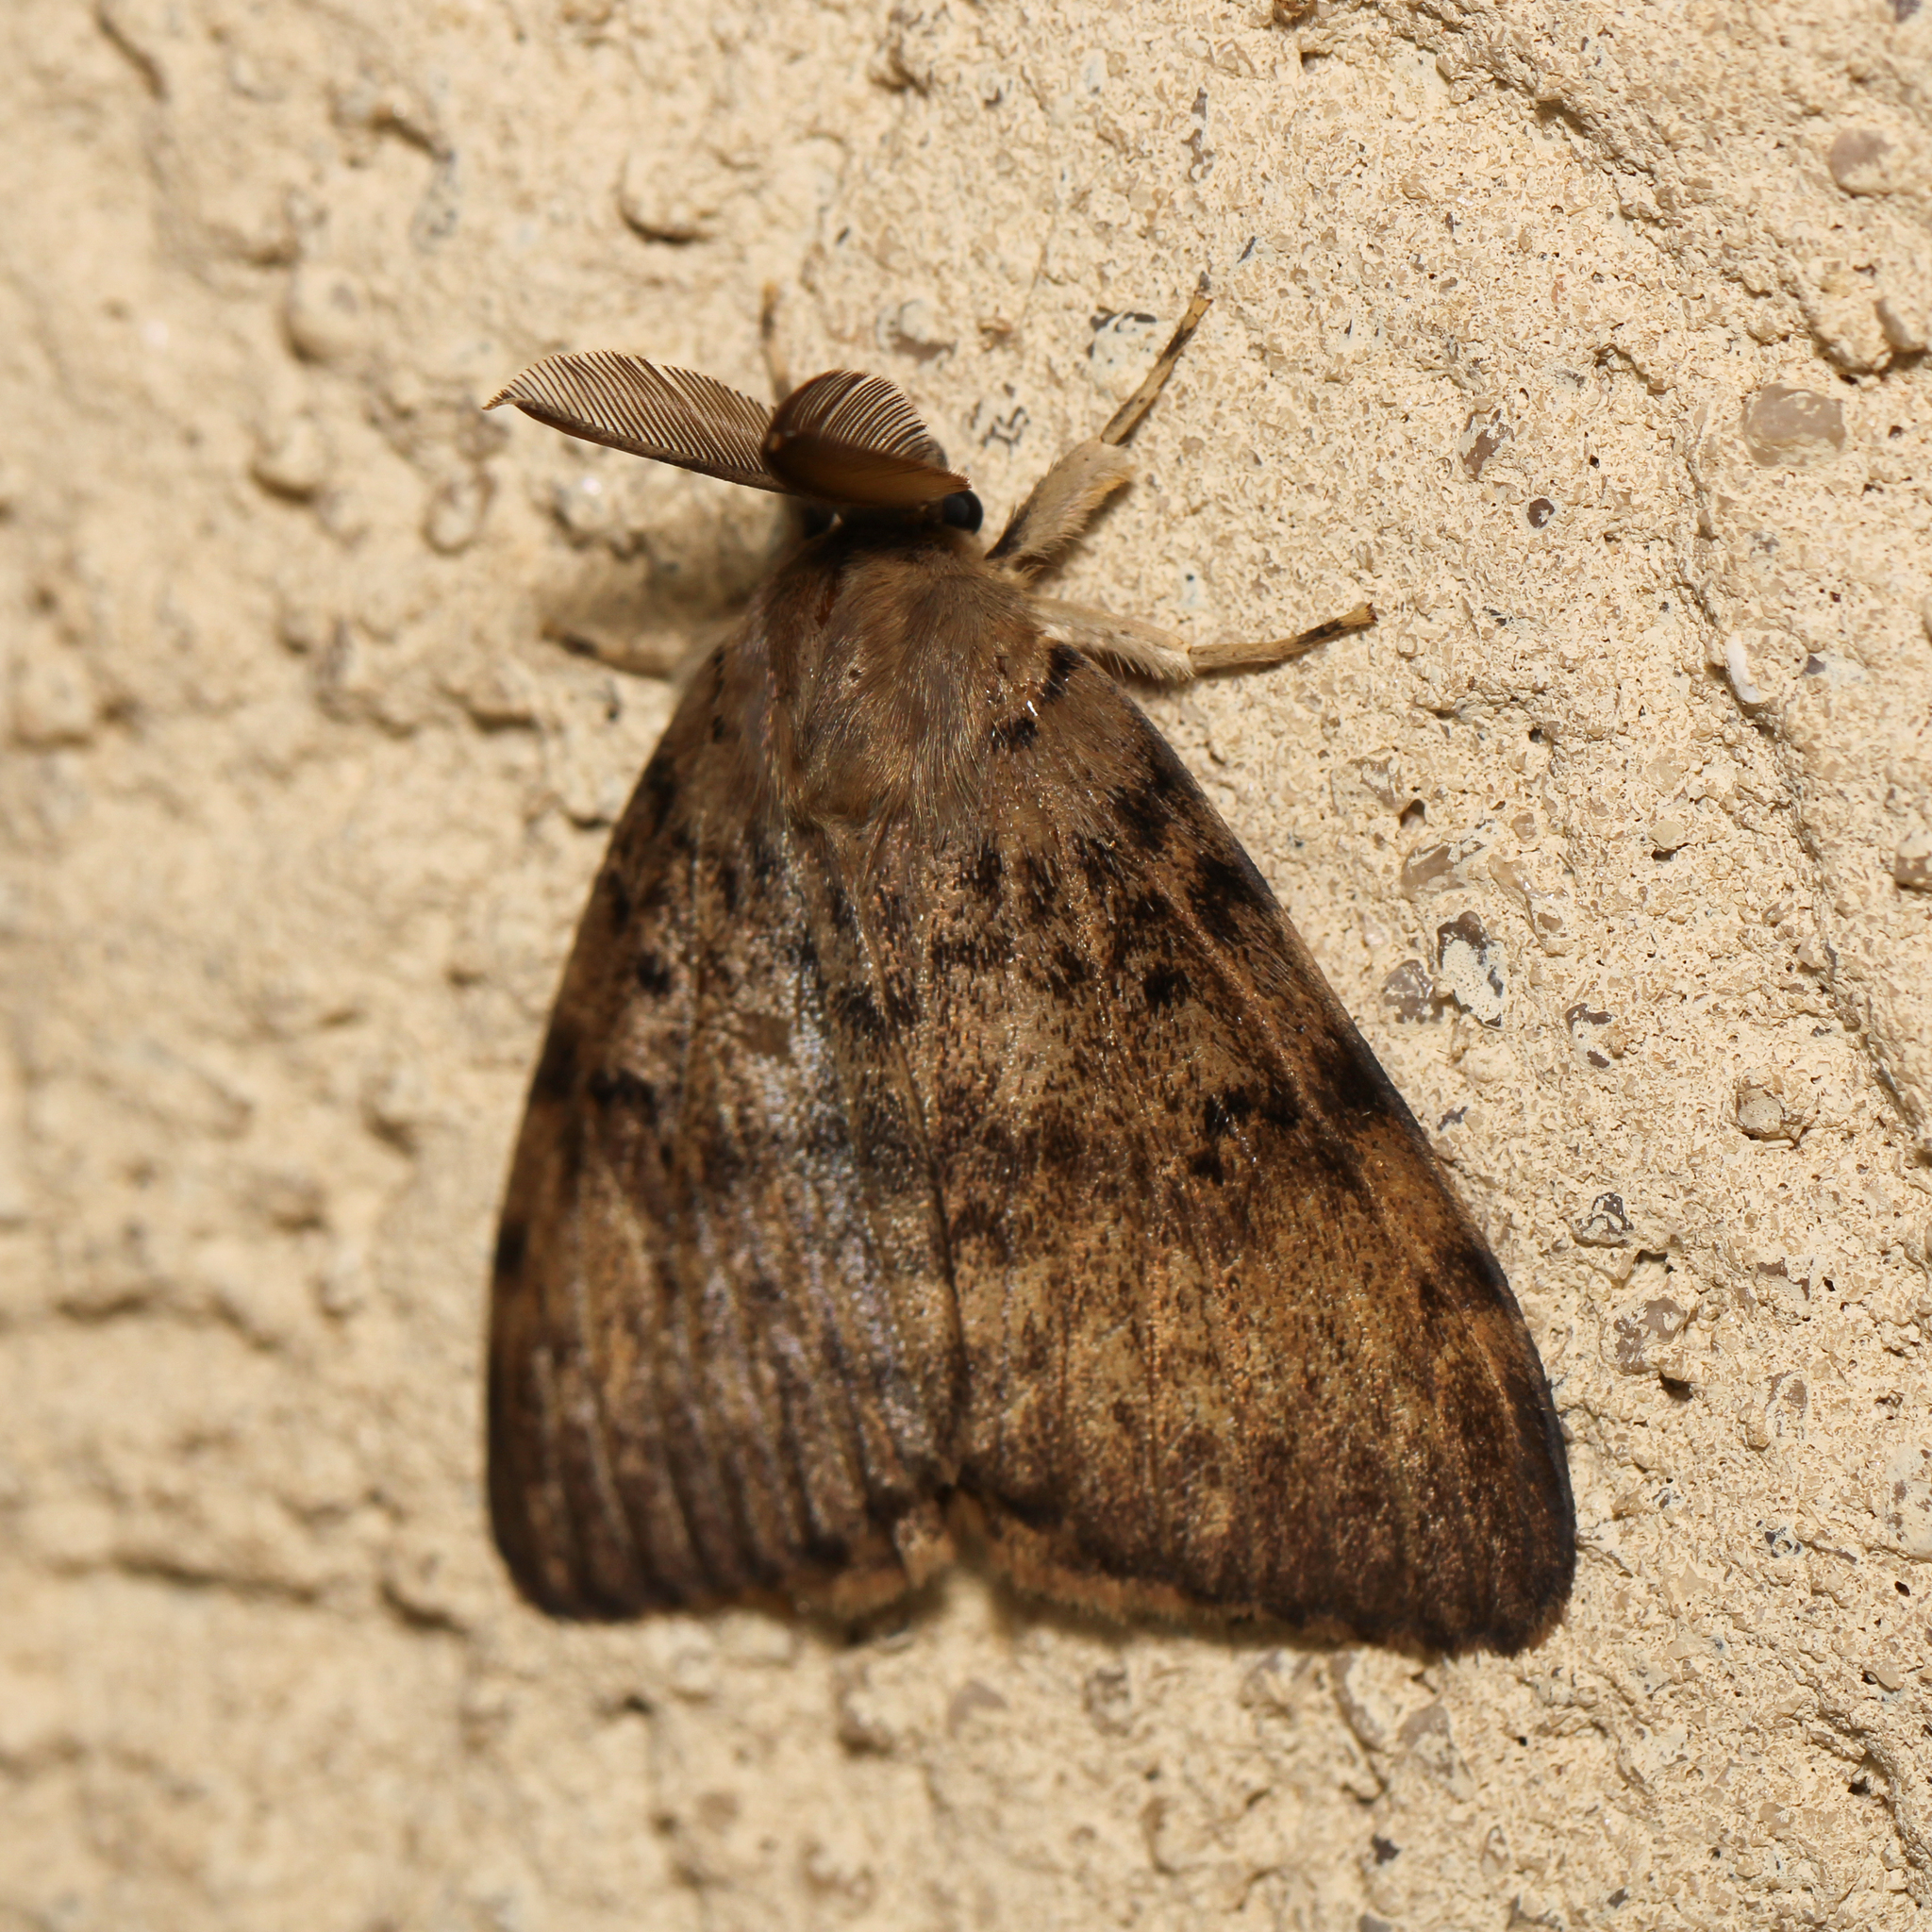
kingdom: Animalia
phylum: Arthropoda
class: Insecta
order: Lepidoptera
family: Erebidae
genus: Lymantria
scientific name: Lymantria dispar
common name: Gypsy moth
